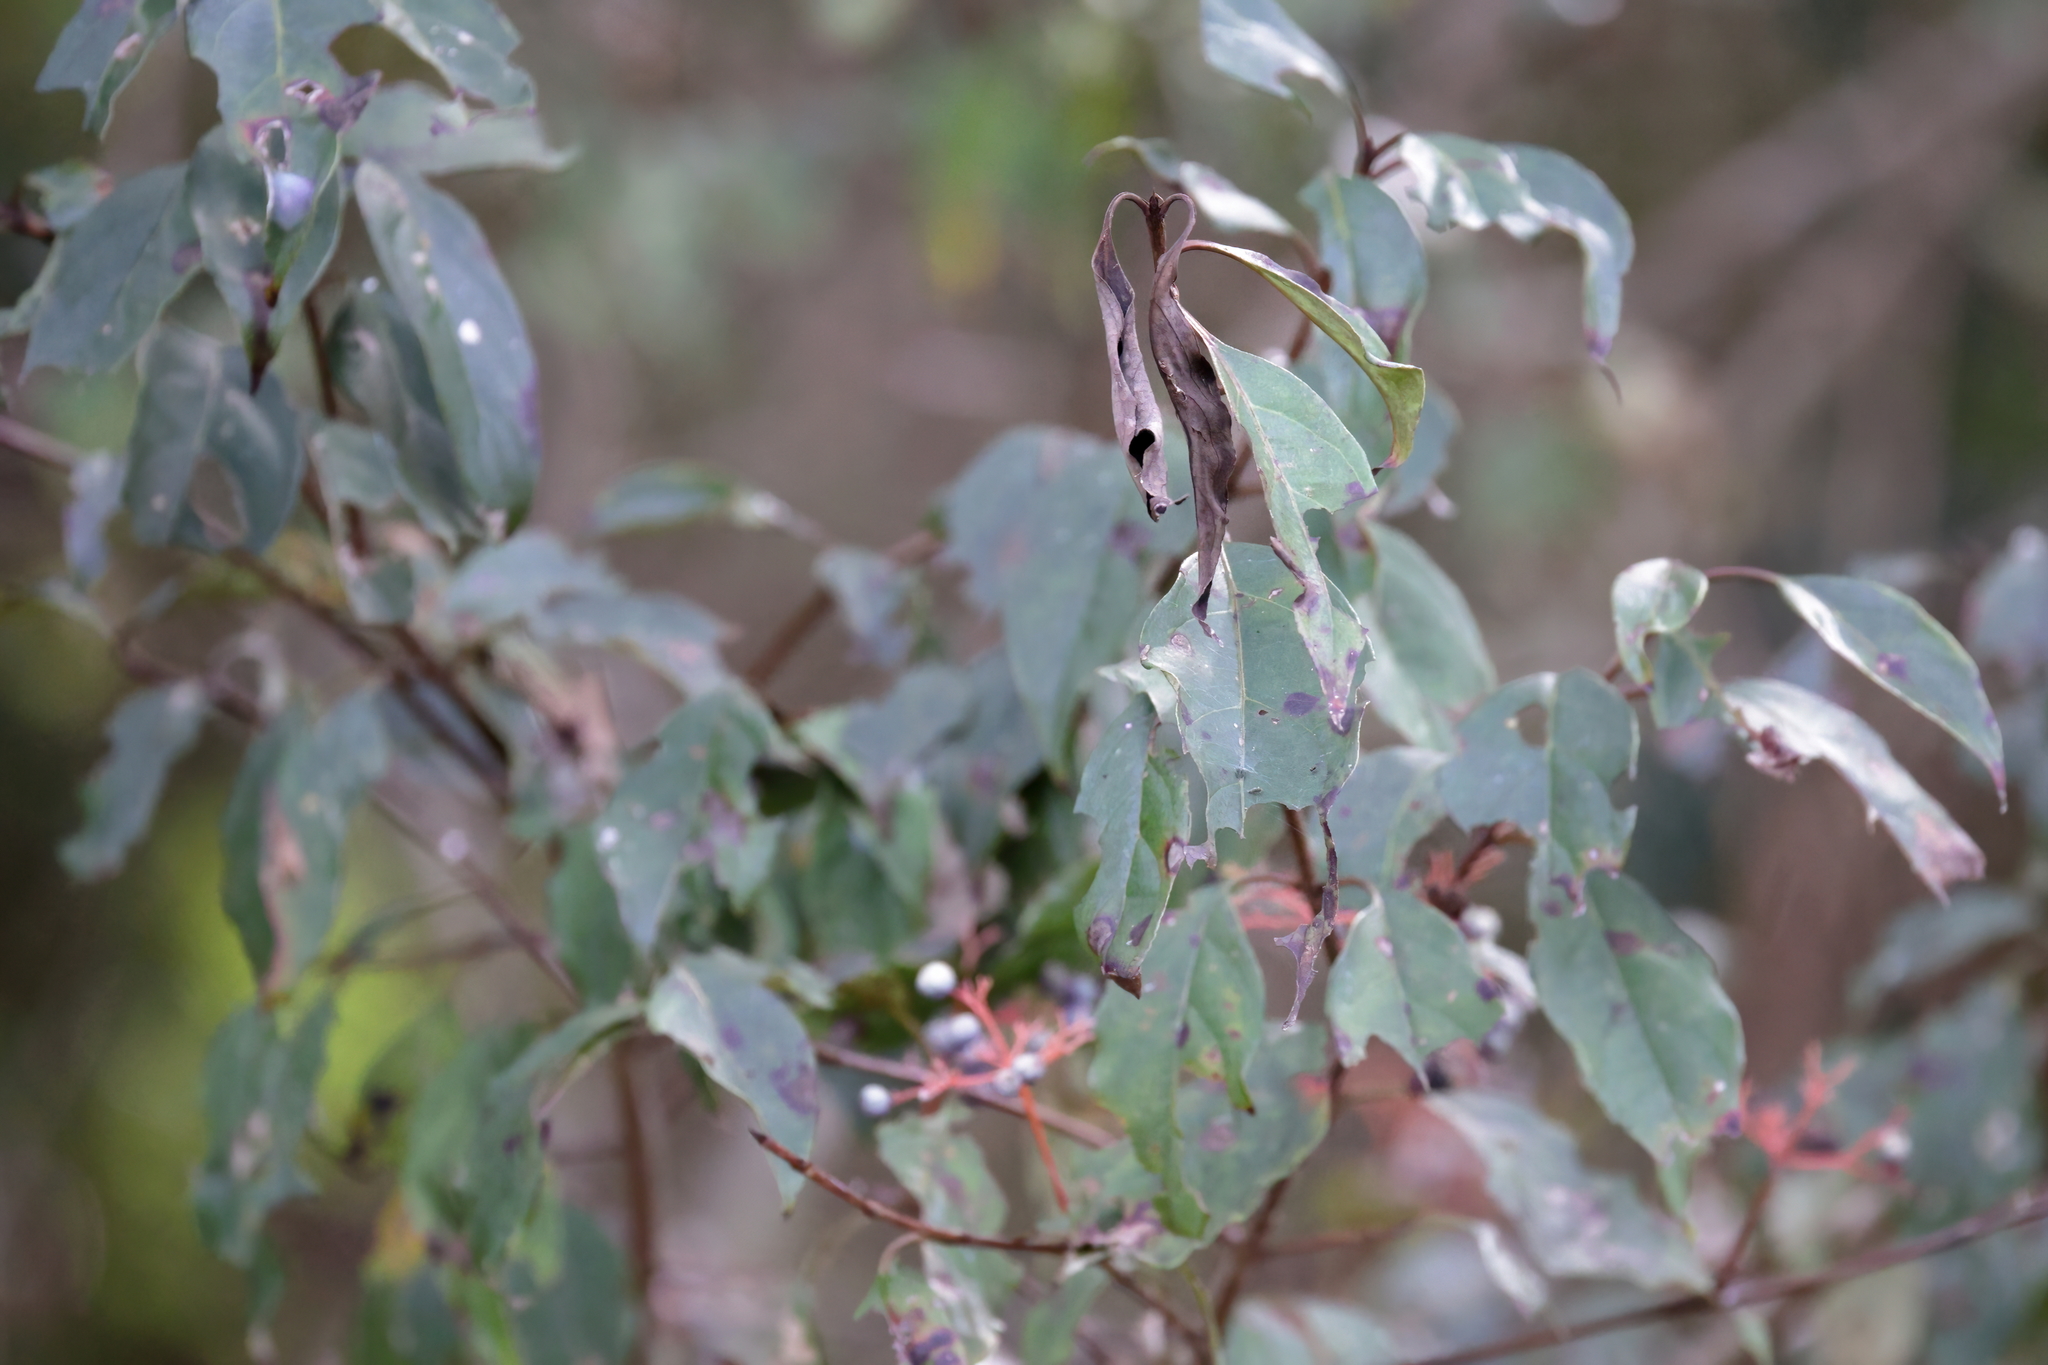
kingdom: Plantae
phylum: Tracheophyta
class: Magnoliopsida
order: Cornales
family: Cornaceae
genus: Cornus
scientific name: Cornus foemina
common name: Swamp dogwood
